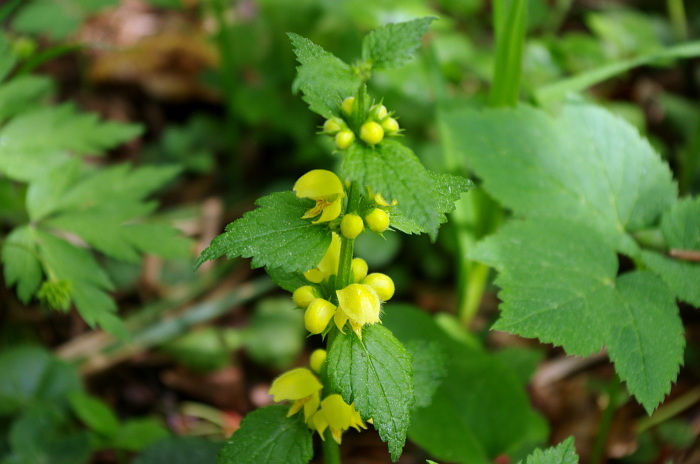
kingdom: Plantae
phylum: Tracheophyta
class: Magnoliopsida
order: Lamiales
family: Lamiaceae
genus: Lamium
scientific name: Lamium galeobdolon
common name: Yellow archangel
